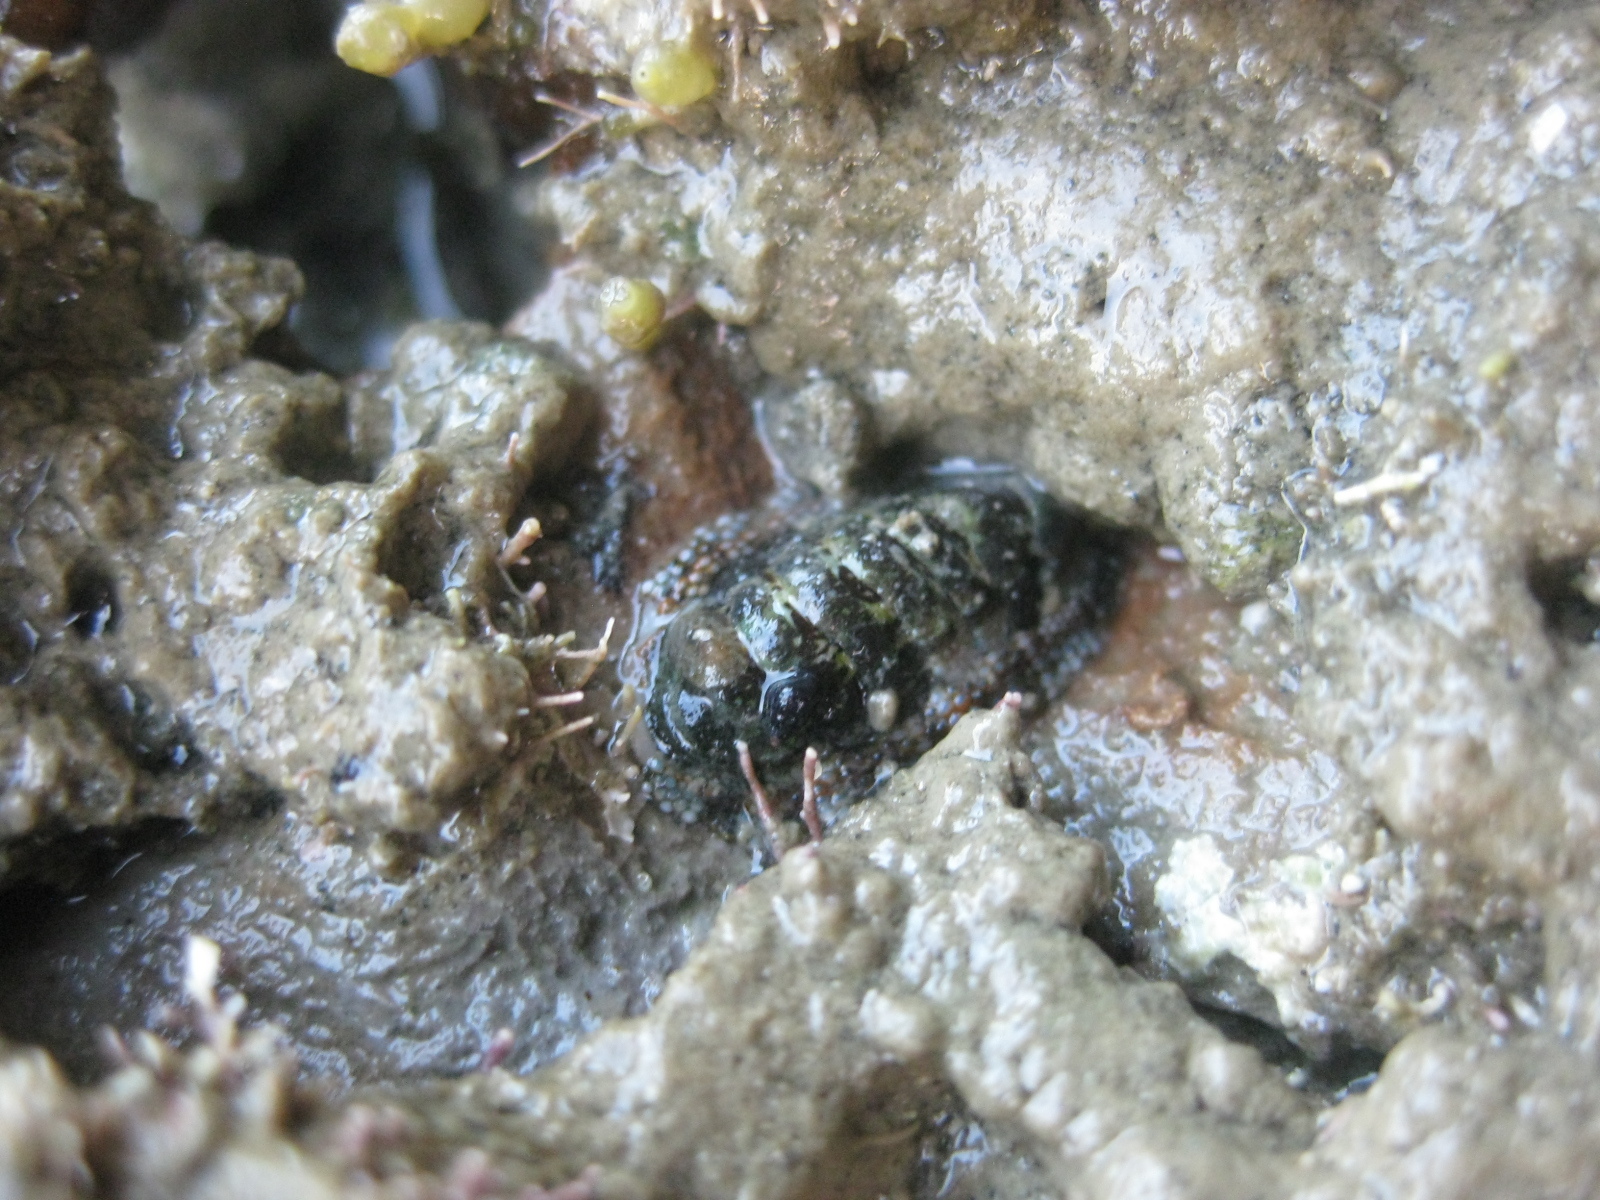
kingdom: Animalia
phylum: Mollusca
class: Polyplacophora
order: Chitonida
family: Chitonidae
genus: Sypharochiton
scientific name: Sypharochiton pelliserpentis
